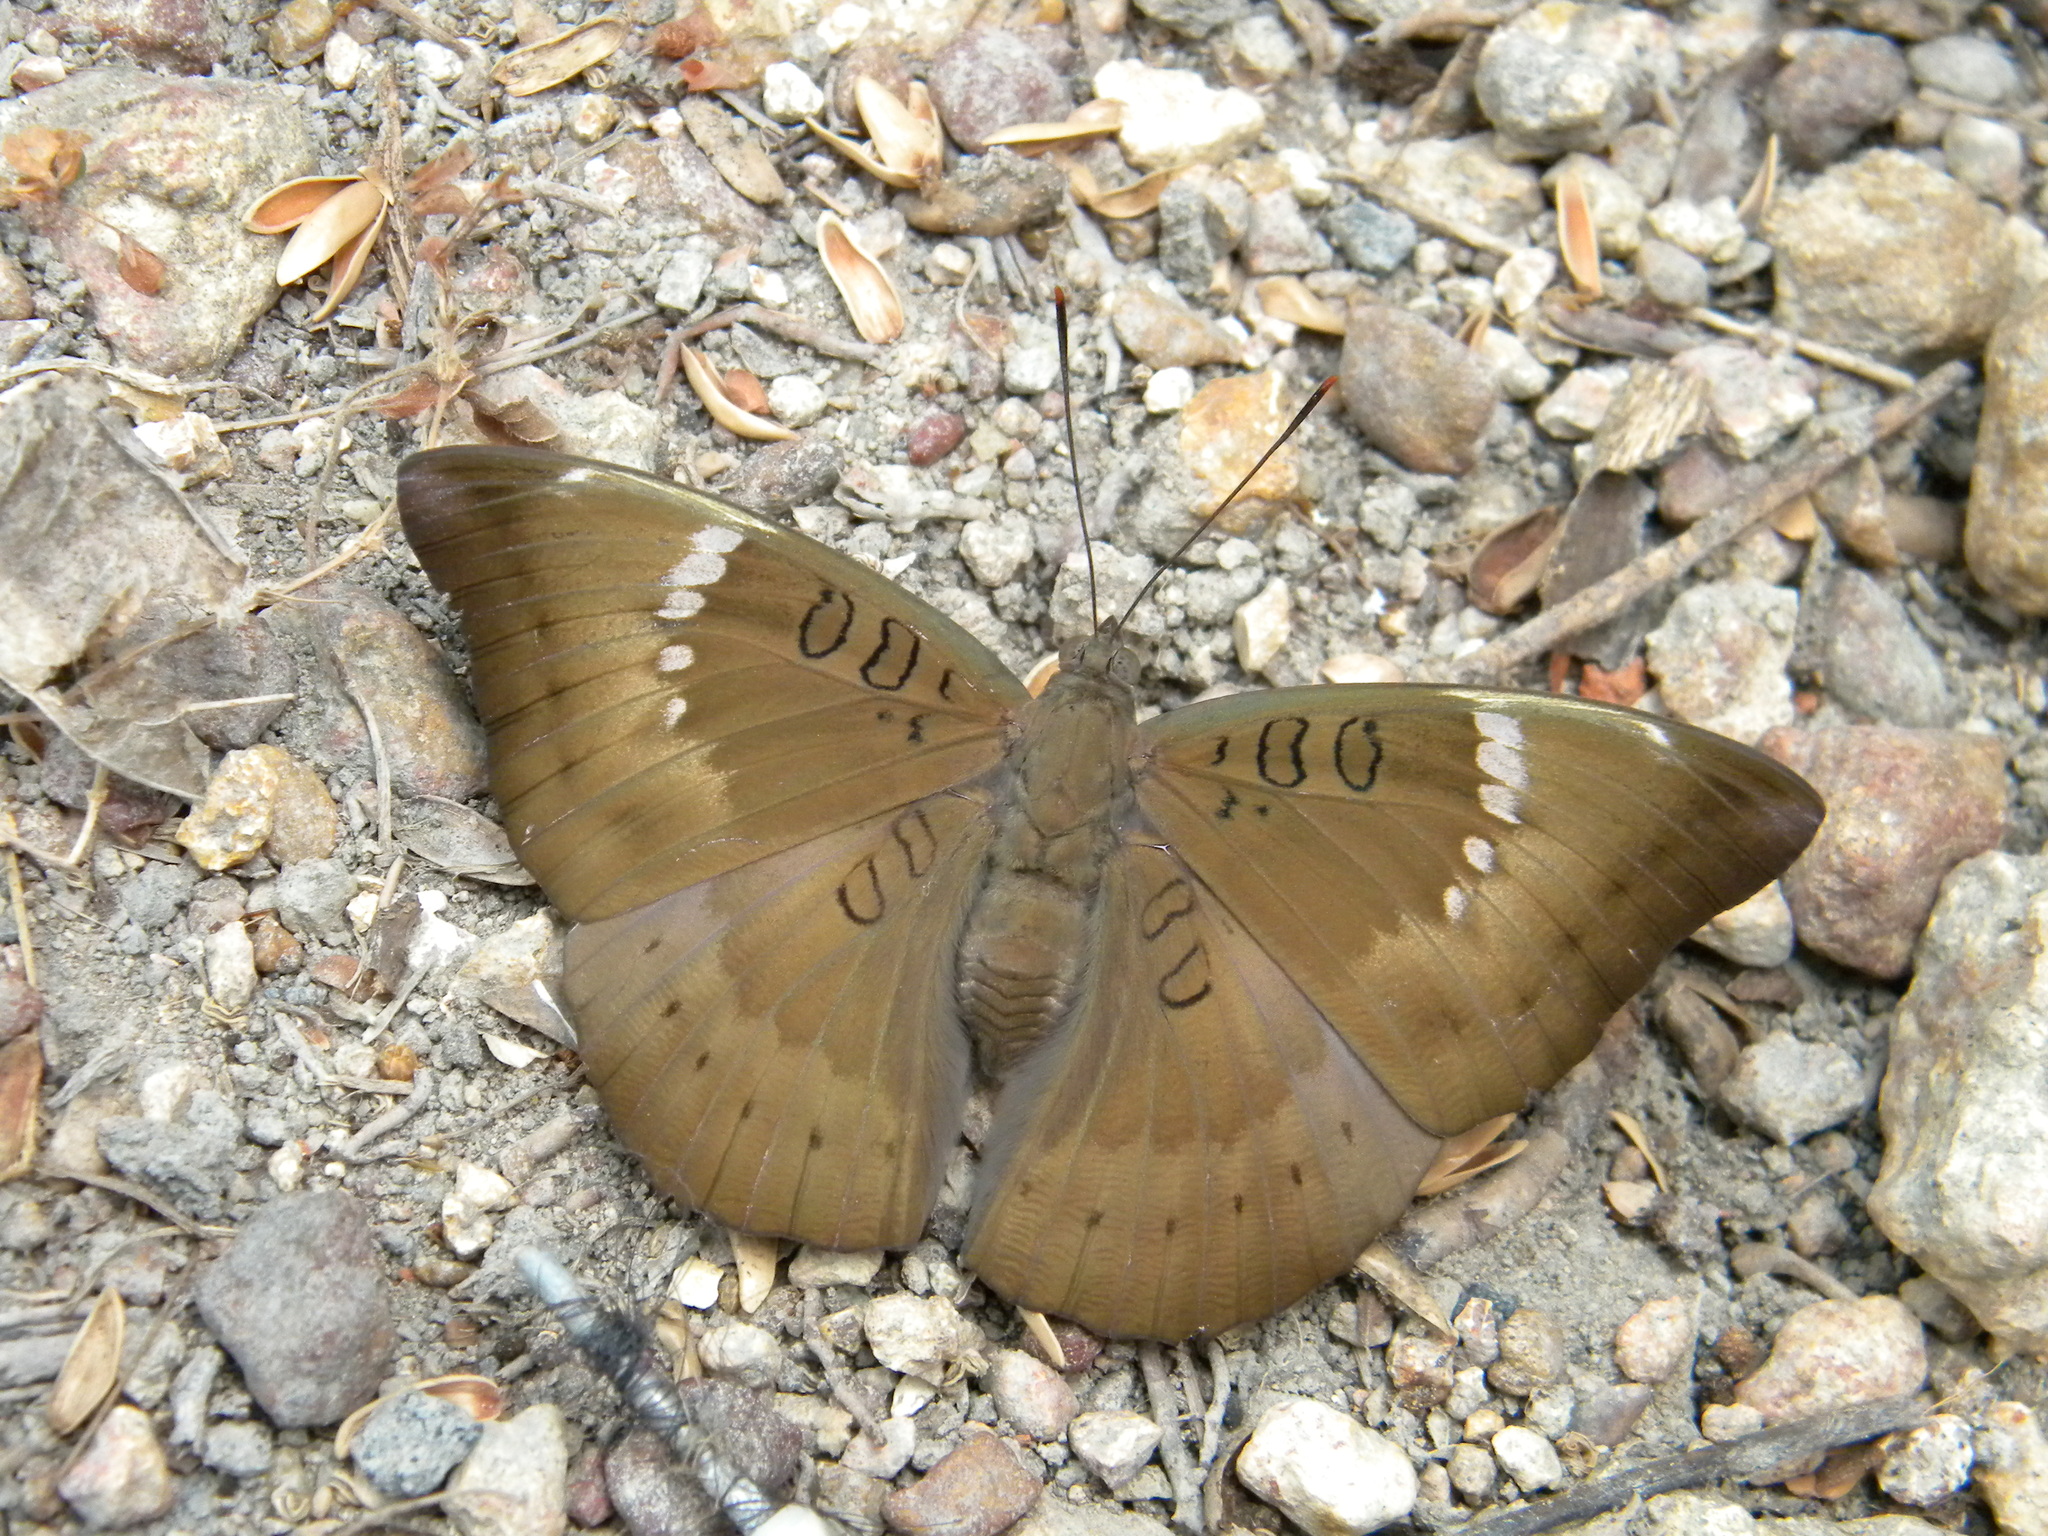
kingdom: Animalia
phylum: Arthropoda
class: Insecta
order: Lepidoptera
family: Nymphalidae
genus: Euthalia
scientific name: Euthalia aconthea
